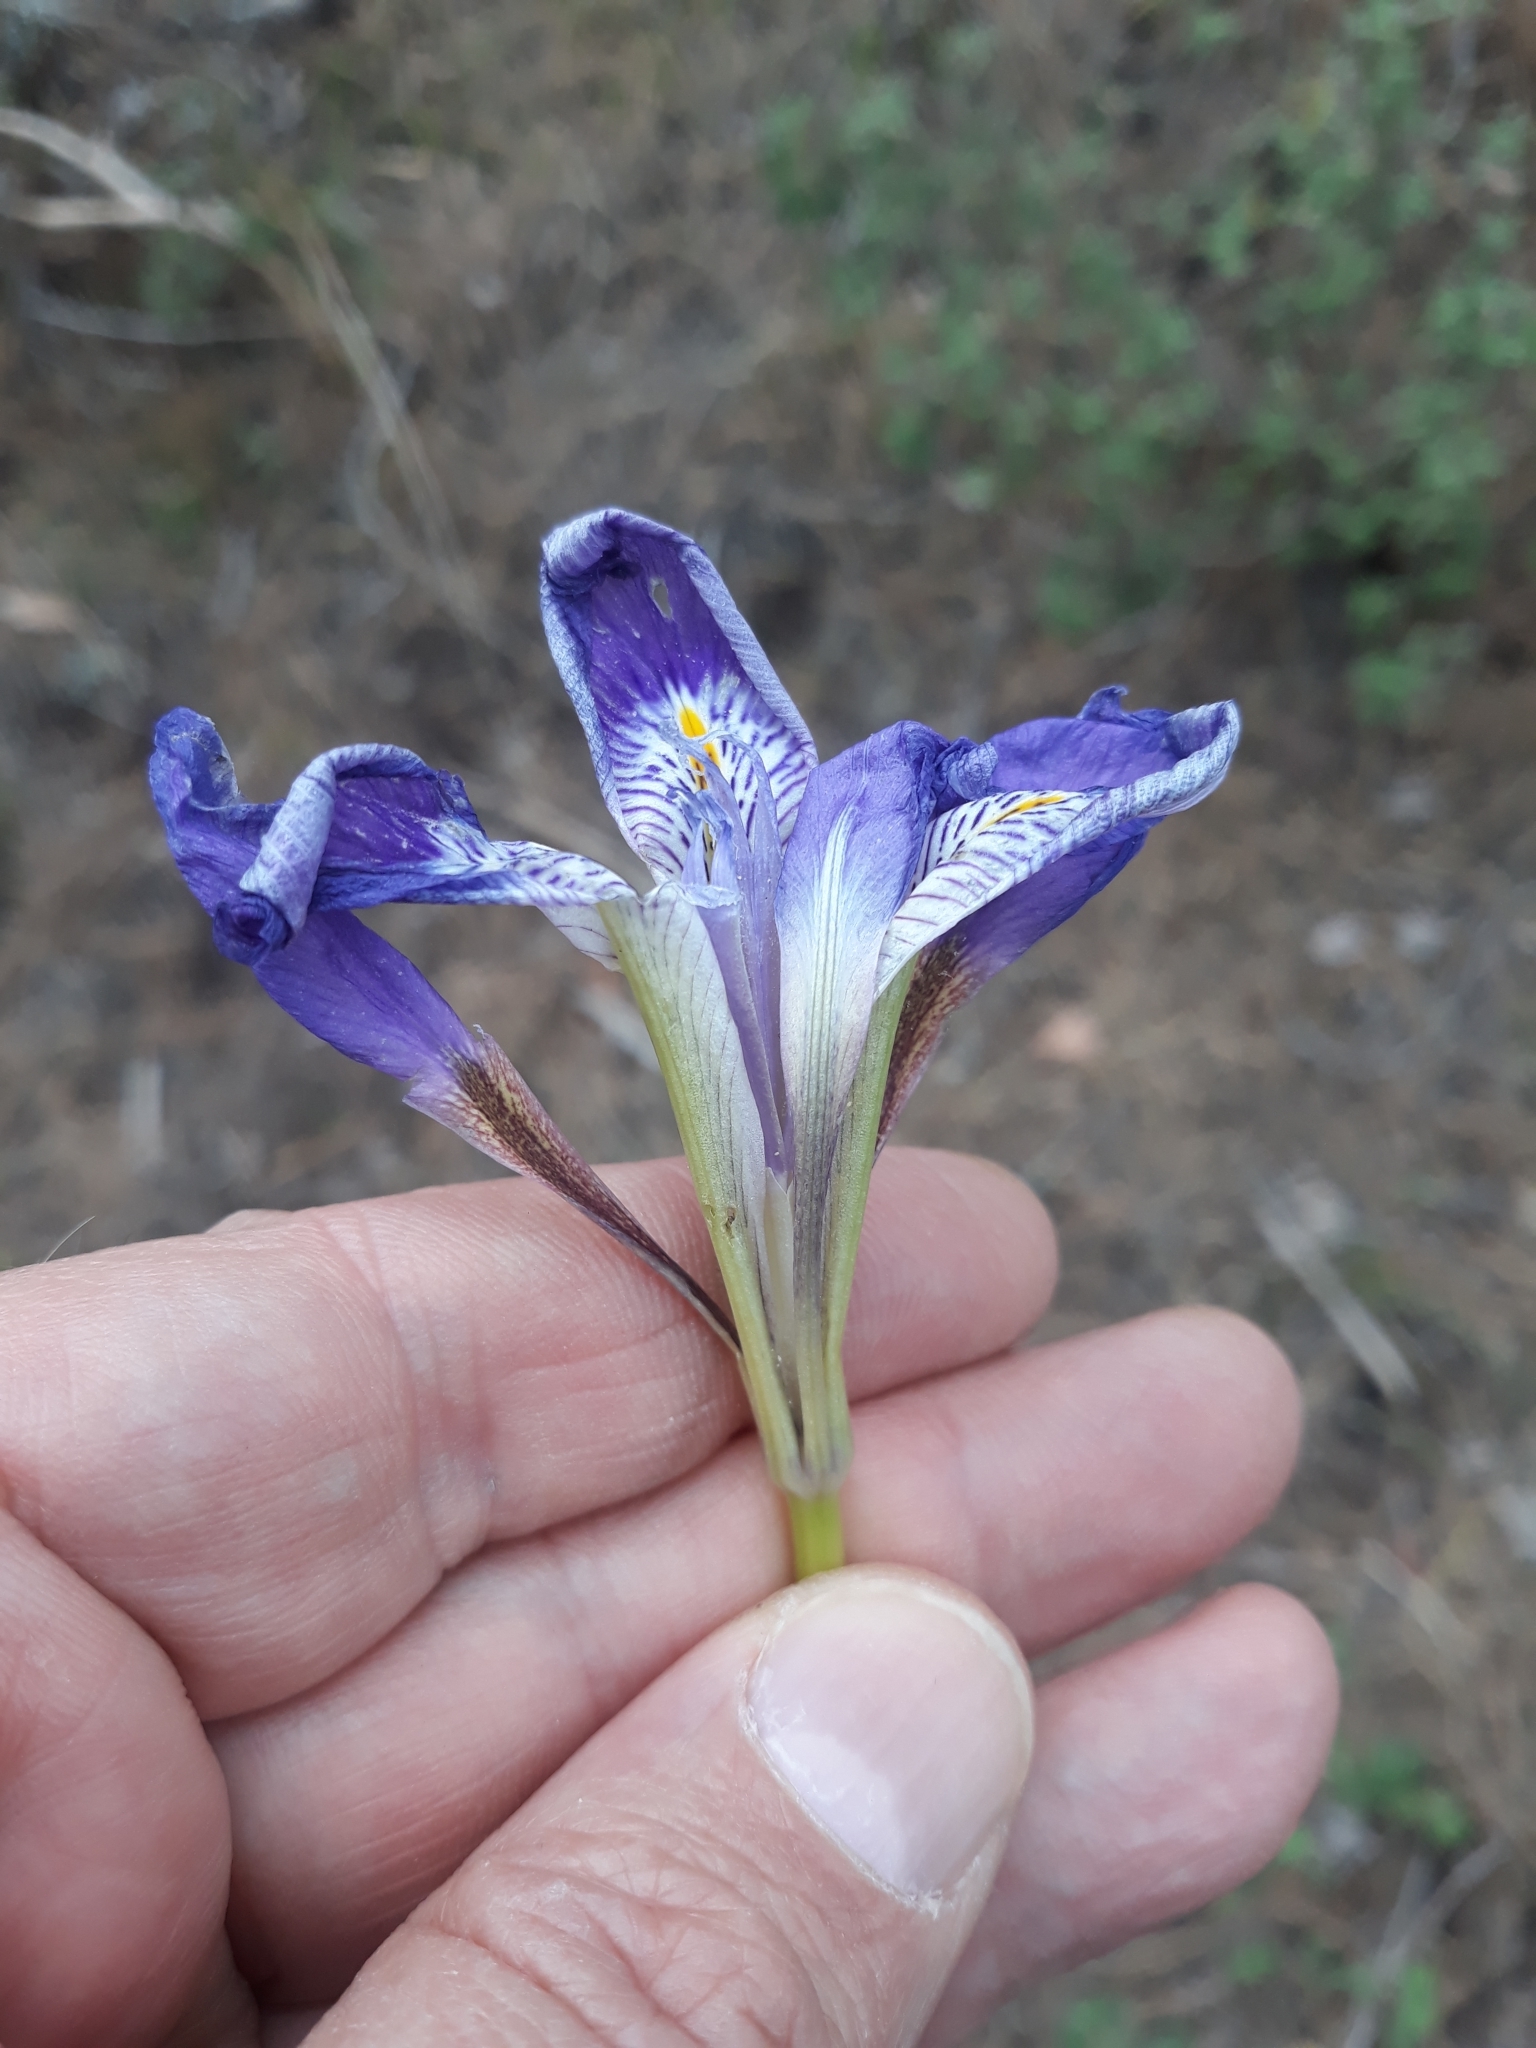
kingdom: Plantae
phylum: Tracheophyta
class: Liliopsida
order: Asparagales
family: Iridaceae
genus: Iris
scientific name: Iris unguicularis
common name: Algerian iris
